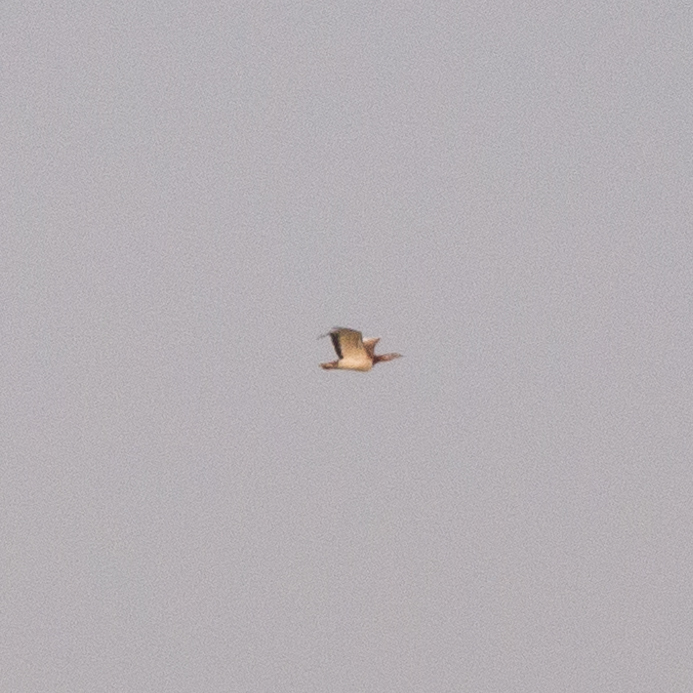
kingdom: Animalia
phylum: Chordata
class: Aves
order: Otidiformes
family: Otididae
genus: Otis
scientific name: Otis tarda
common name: Great bustard
